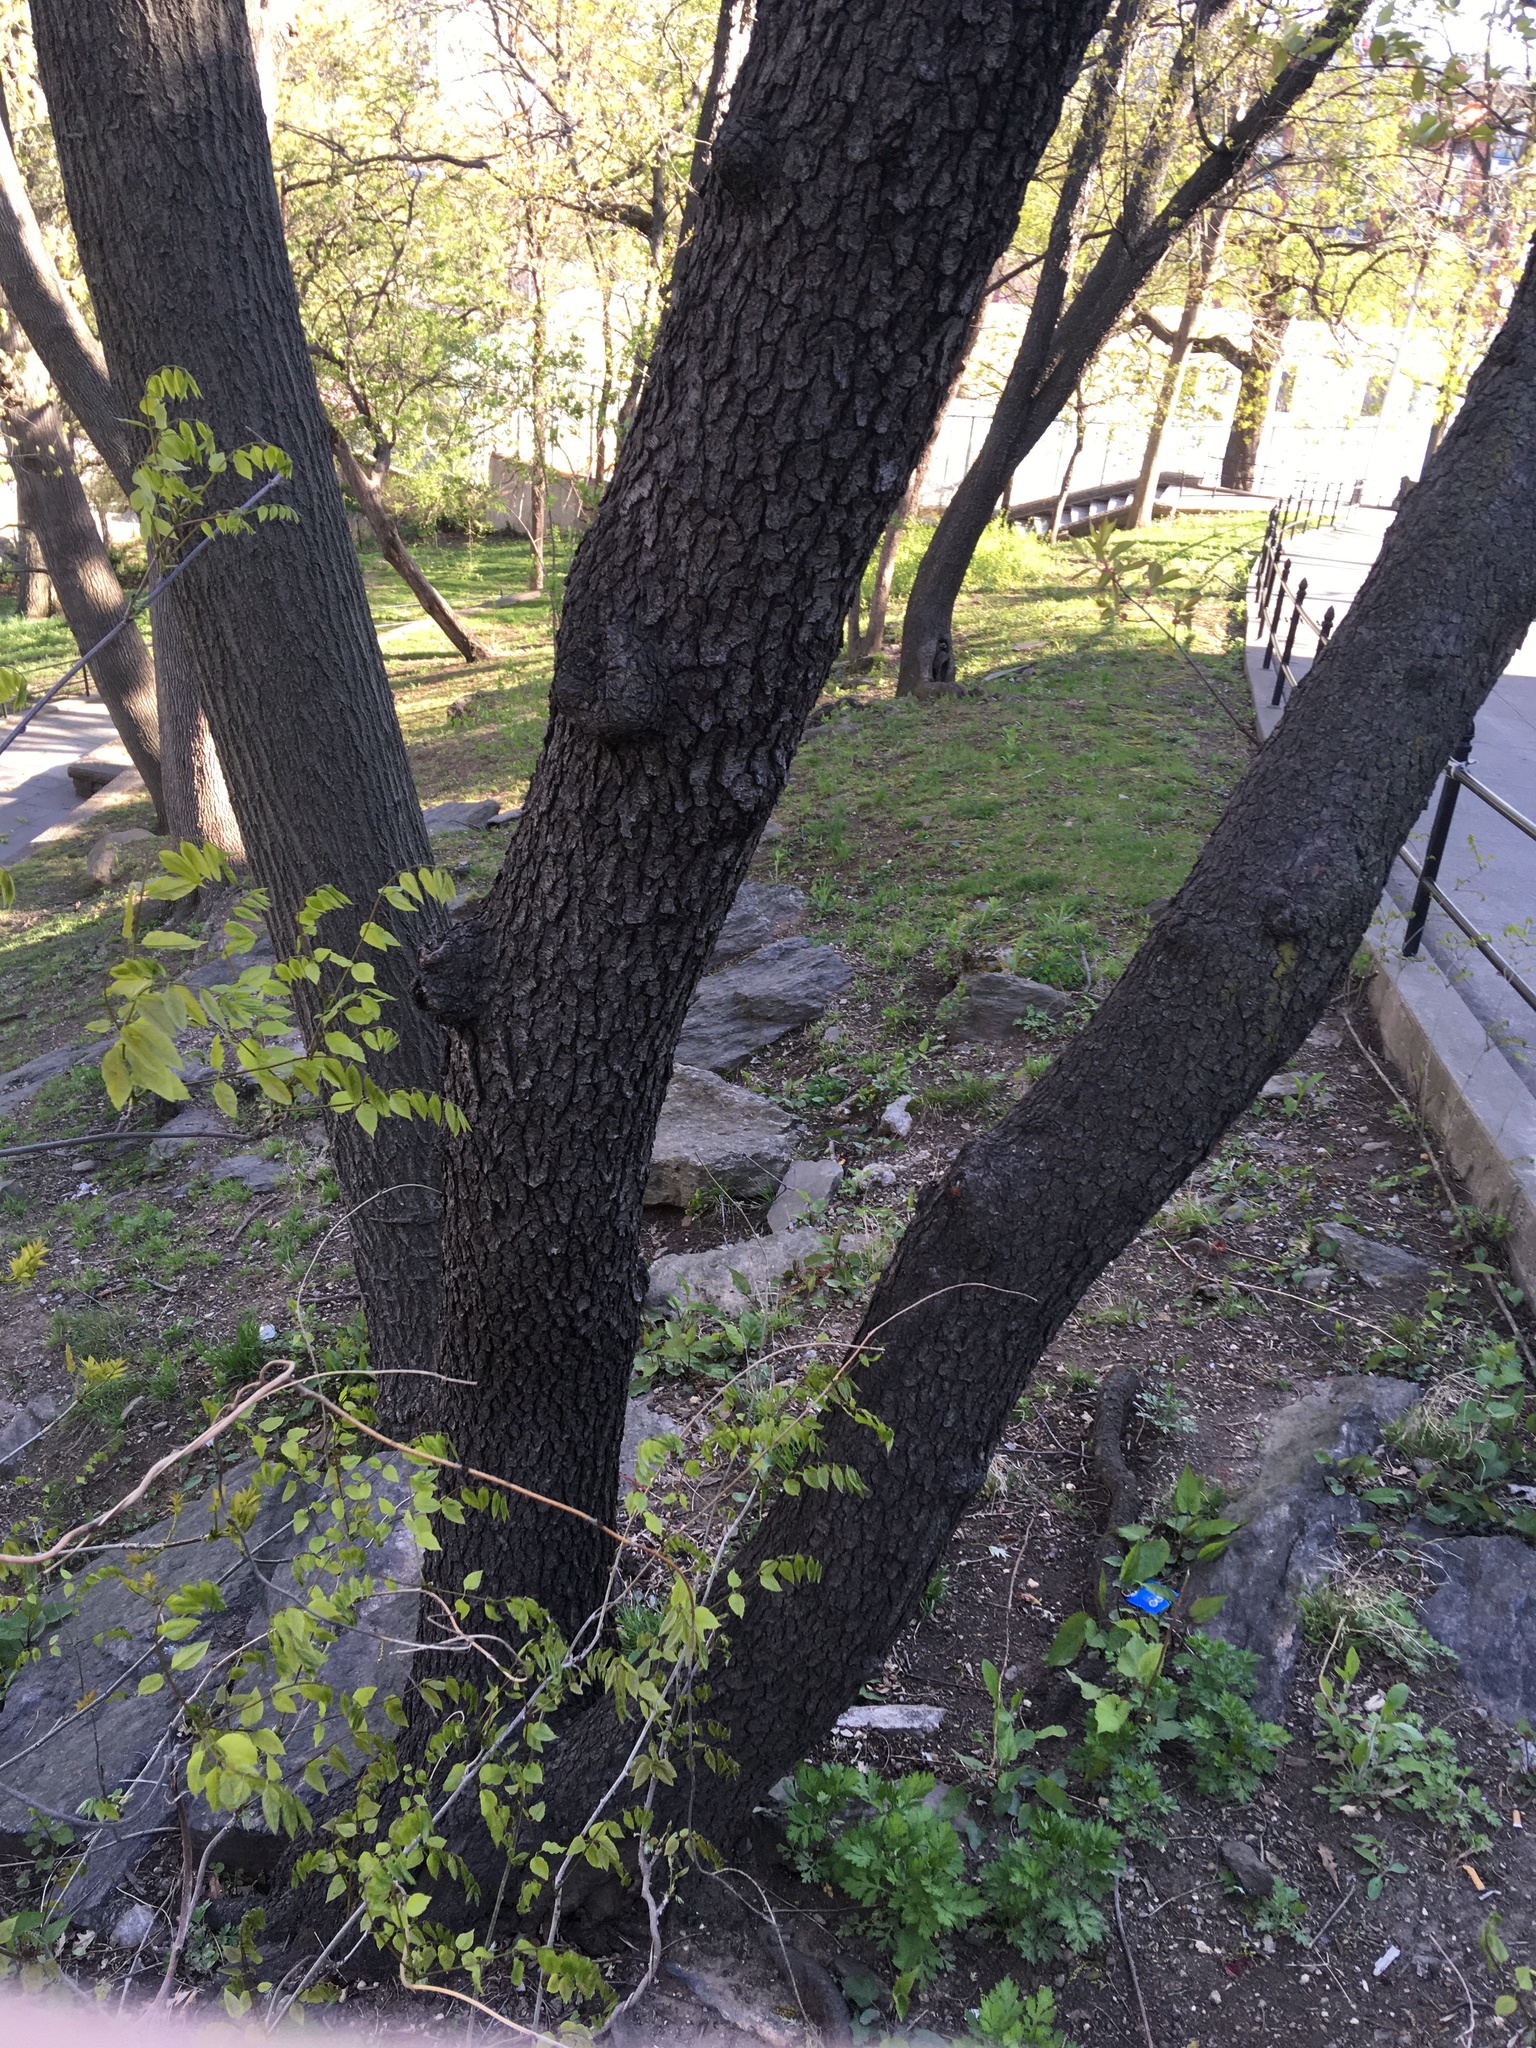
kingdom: Plantae
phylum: Tracheophyta
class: Magnoliopsida
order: Rosales
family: Rosaceae
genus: Prunus
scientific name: Prunus serotina
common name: Black cherry
